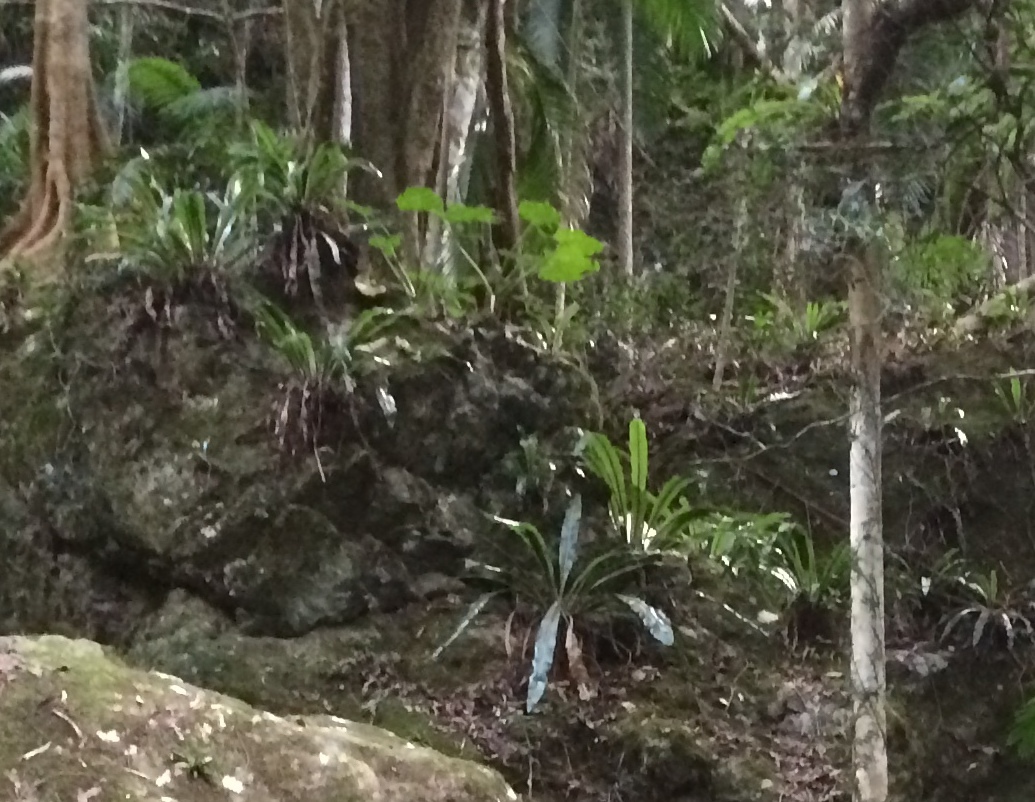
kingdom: Plantae
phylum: Tracheophyta
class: Polypodiopsida
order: Polypodiales
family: Aspleniaceae
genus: Asplenium
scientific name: Asplenium australasicum
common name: Bird's-nest fern
